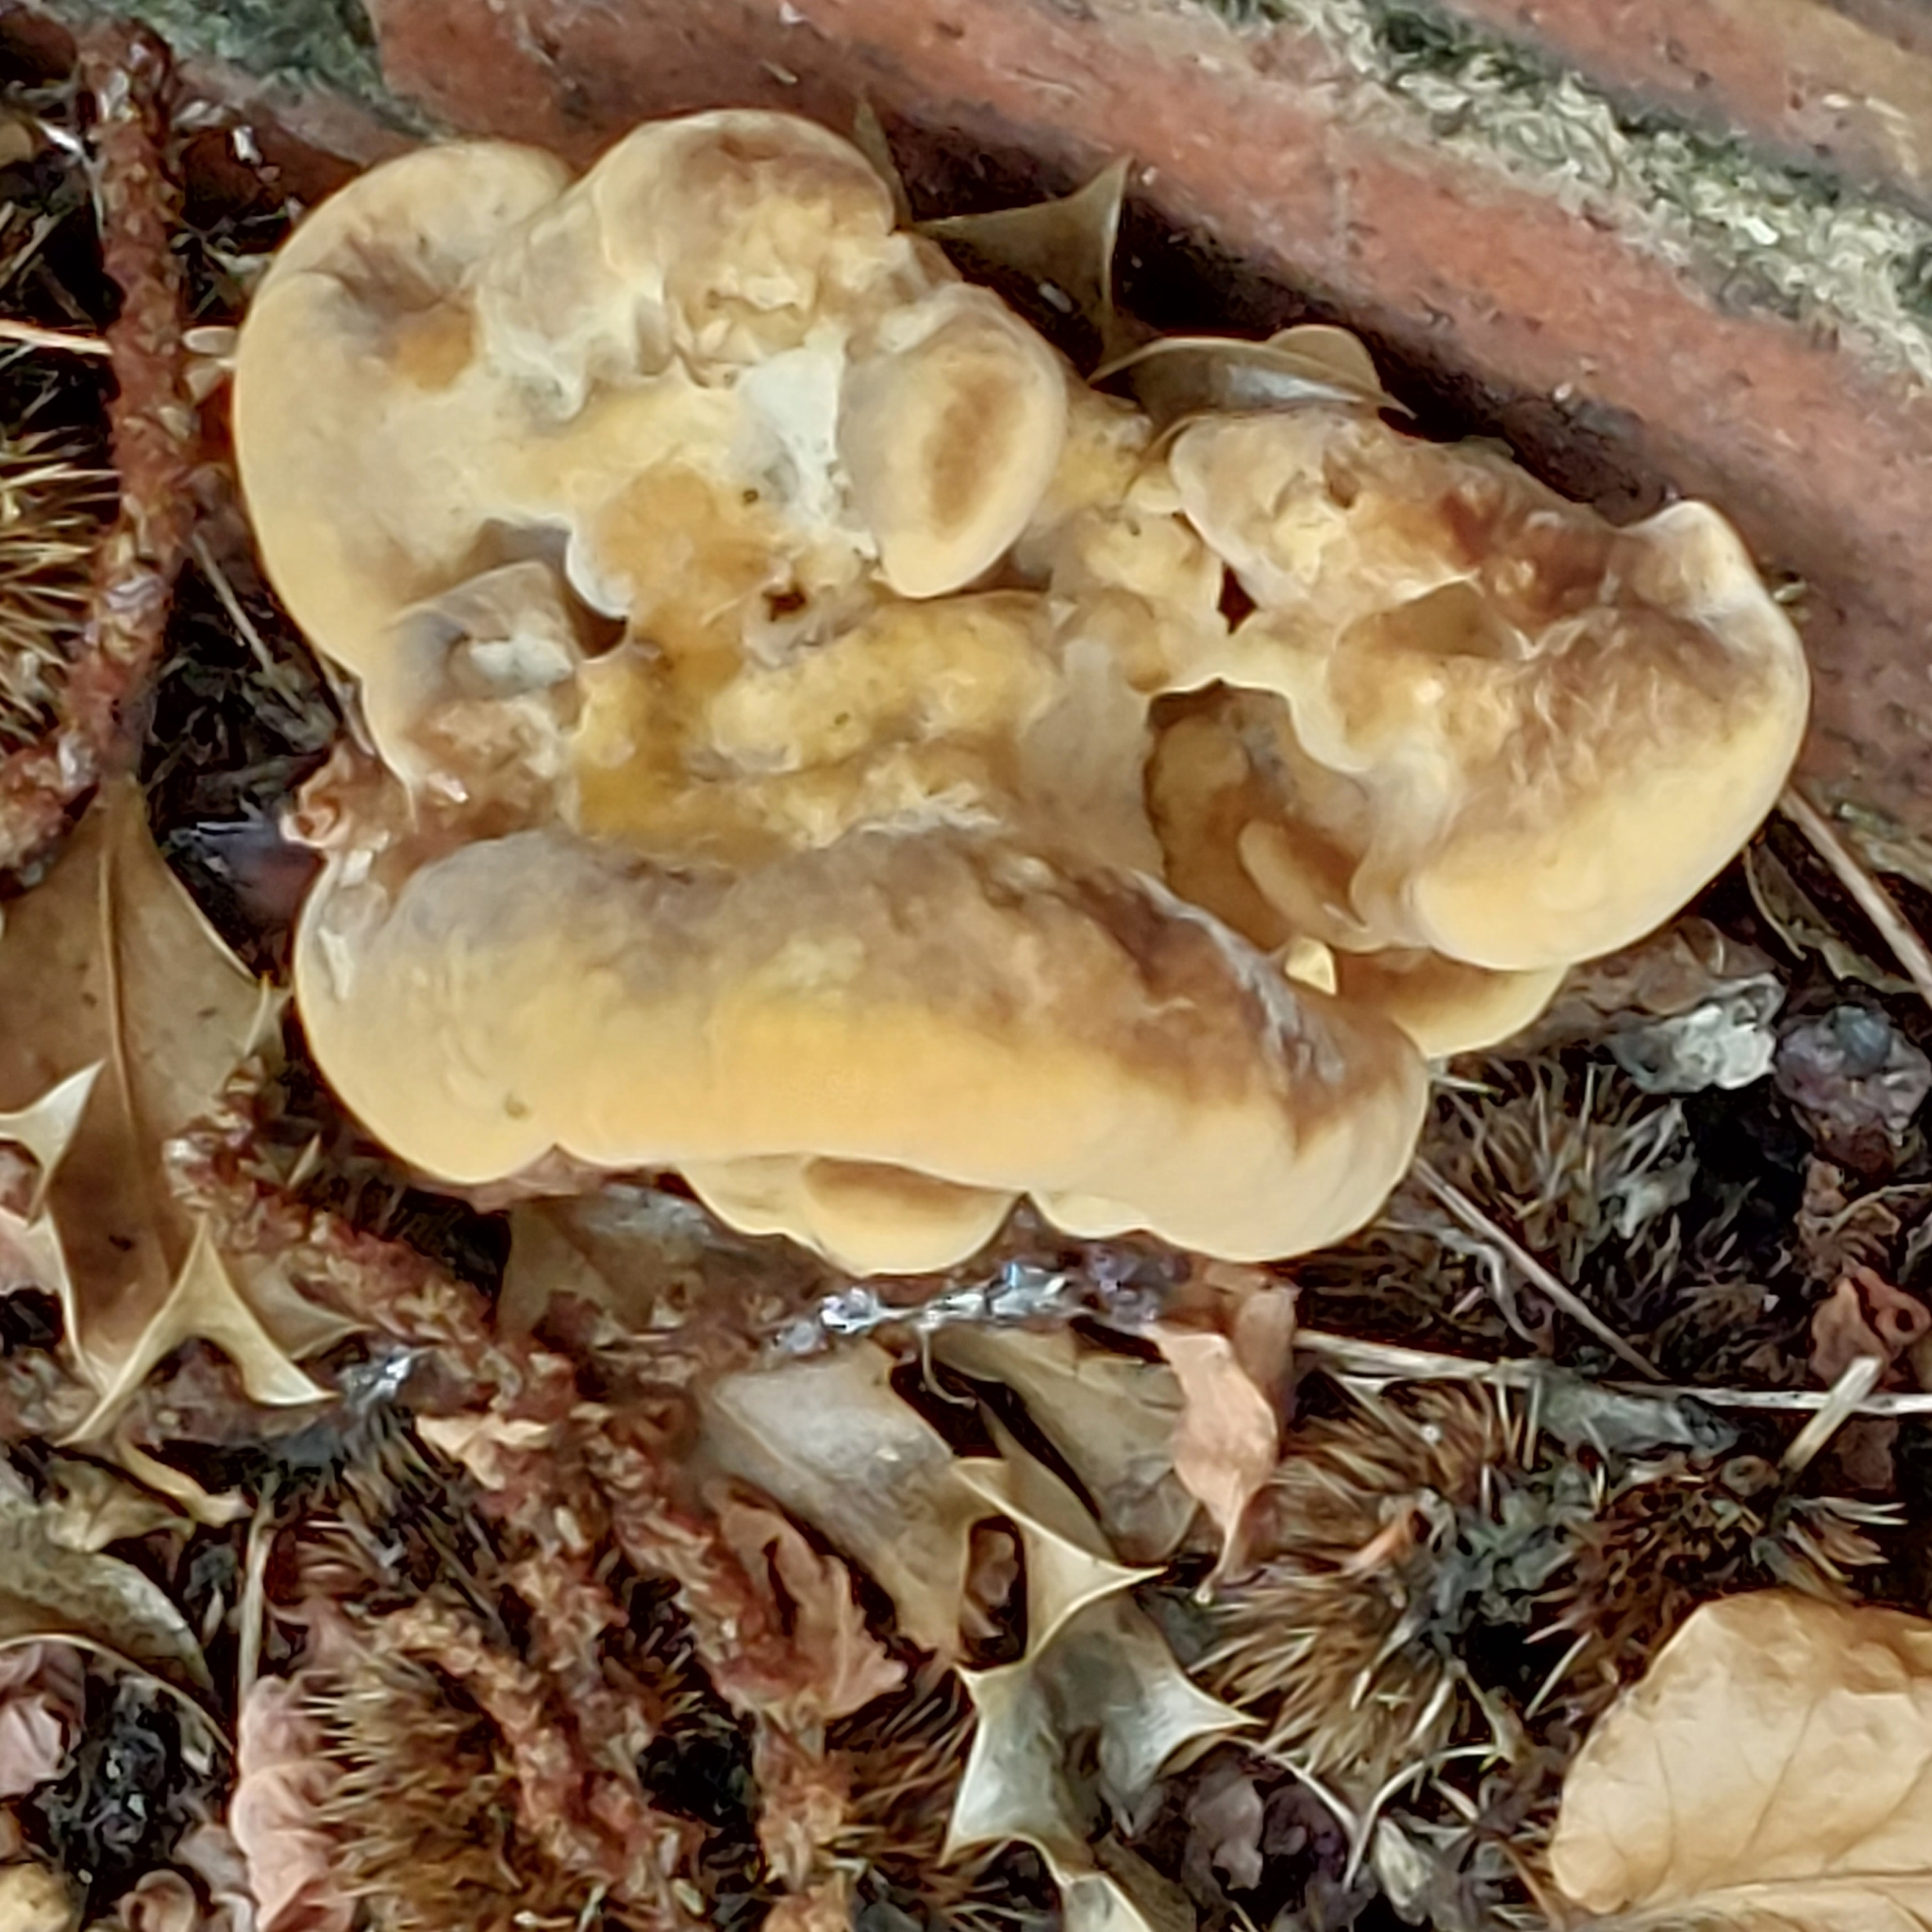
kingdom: Fungi
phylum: Basidiomycota
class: Agaricomycetes
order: Polyporales
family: Meripilaceae
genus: Meripilus
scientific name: Meripilus giganteus
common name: Giant polypore
